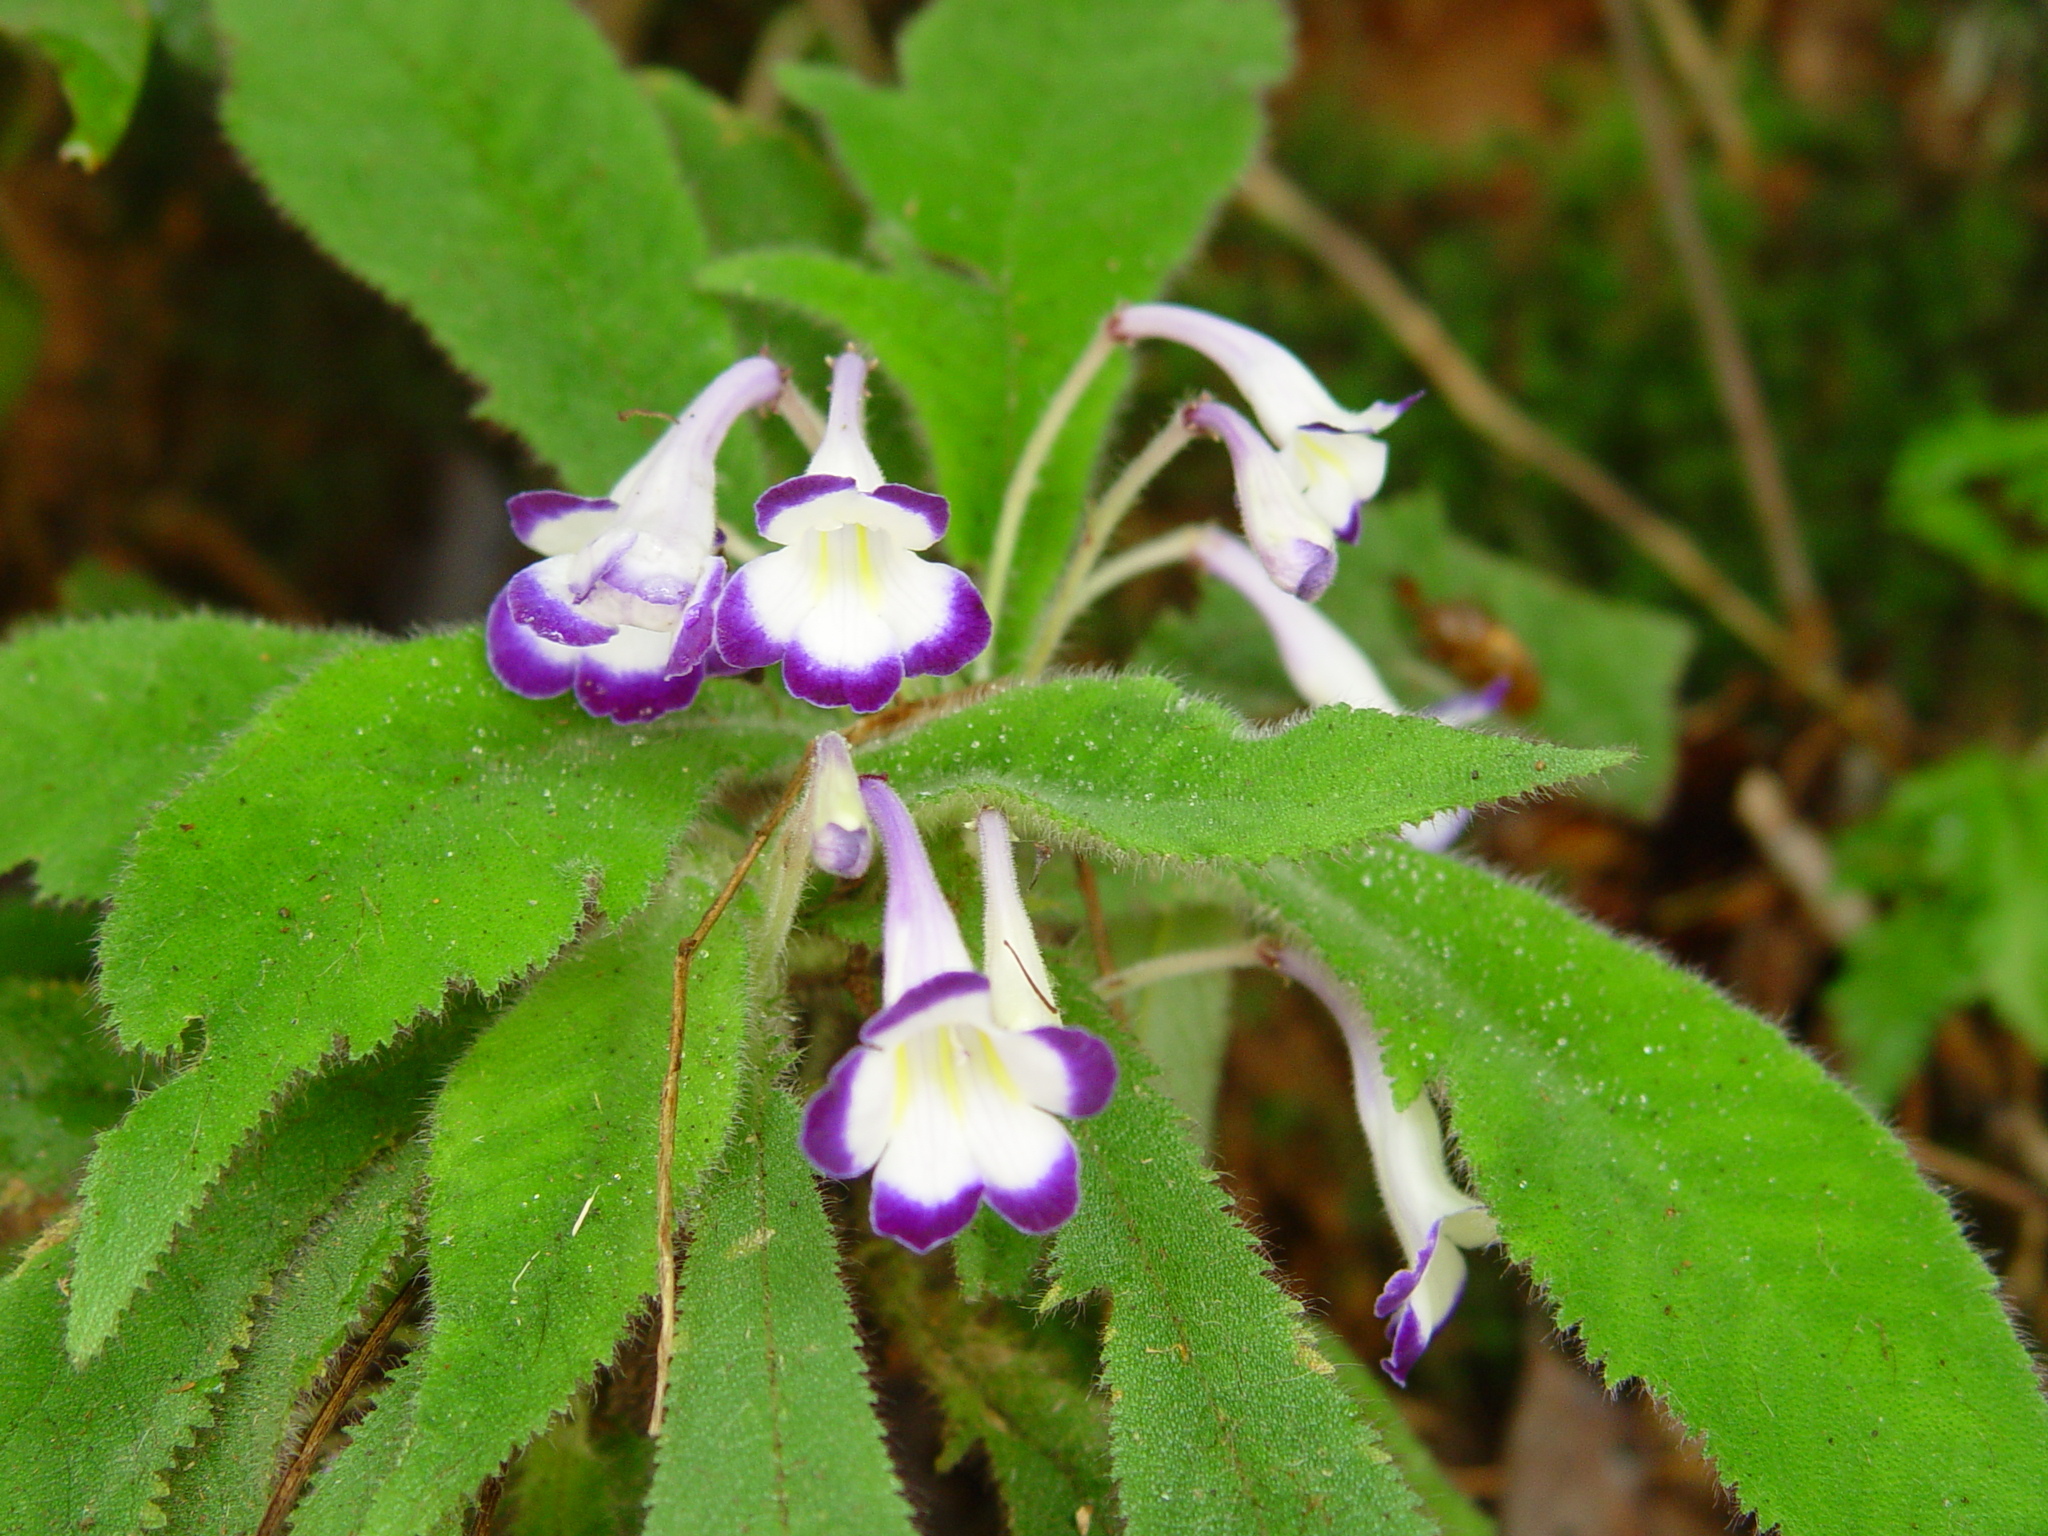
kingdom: Plantae
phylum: Tracheophyta
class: Magnoliopsida
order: Lamiales
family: Gesneriaceae
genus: Codonoboea
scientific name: Codonoboea quinquevulnera
